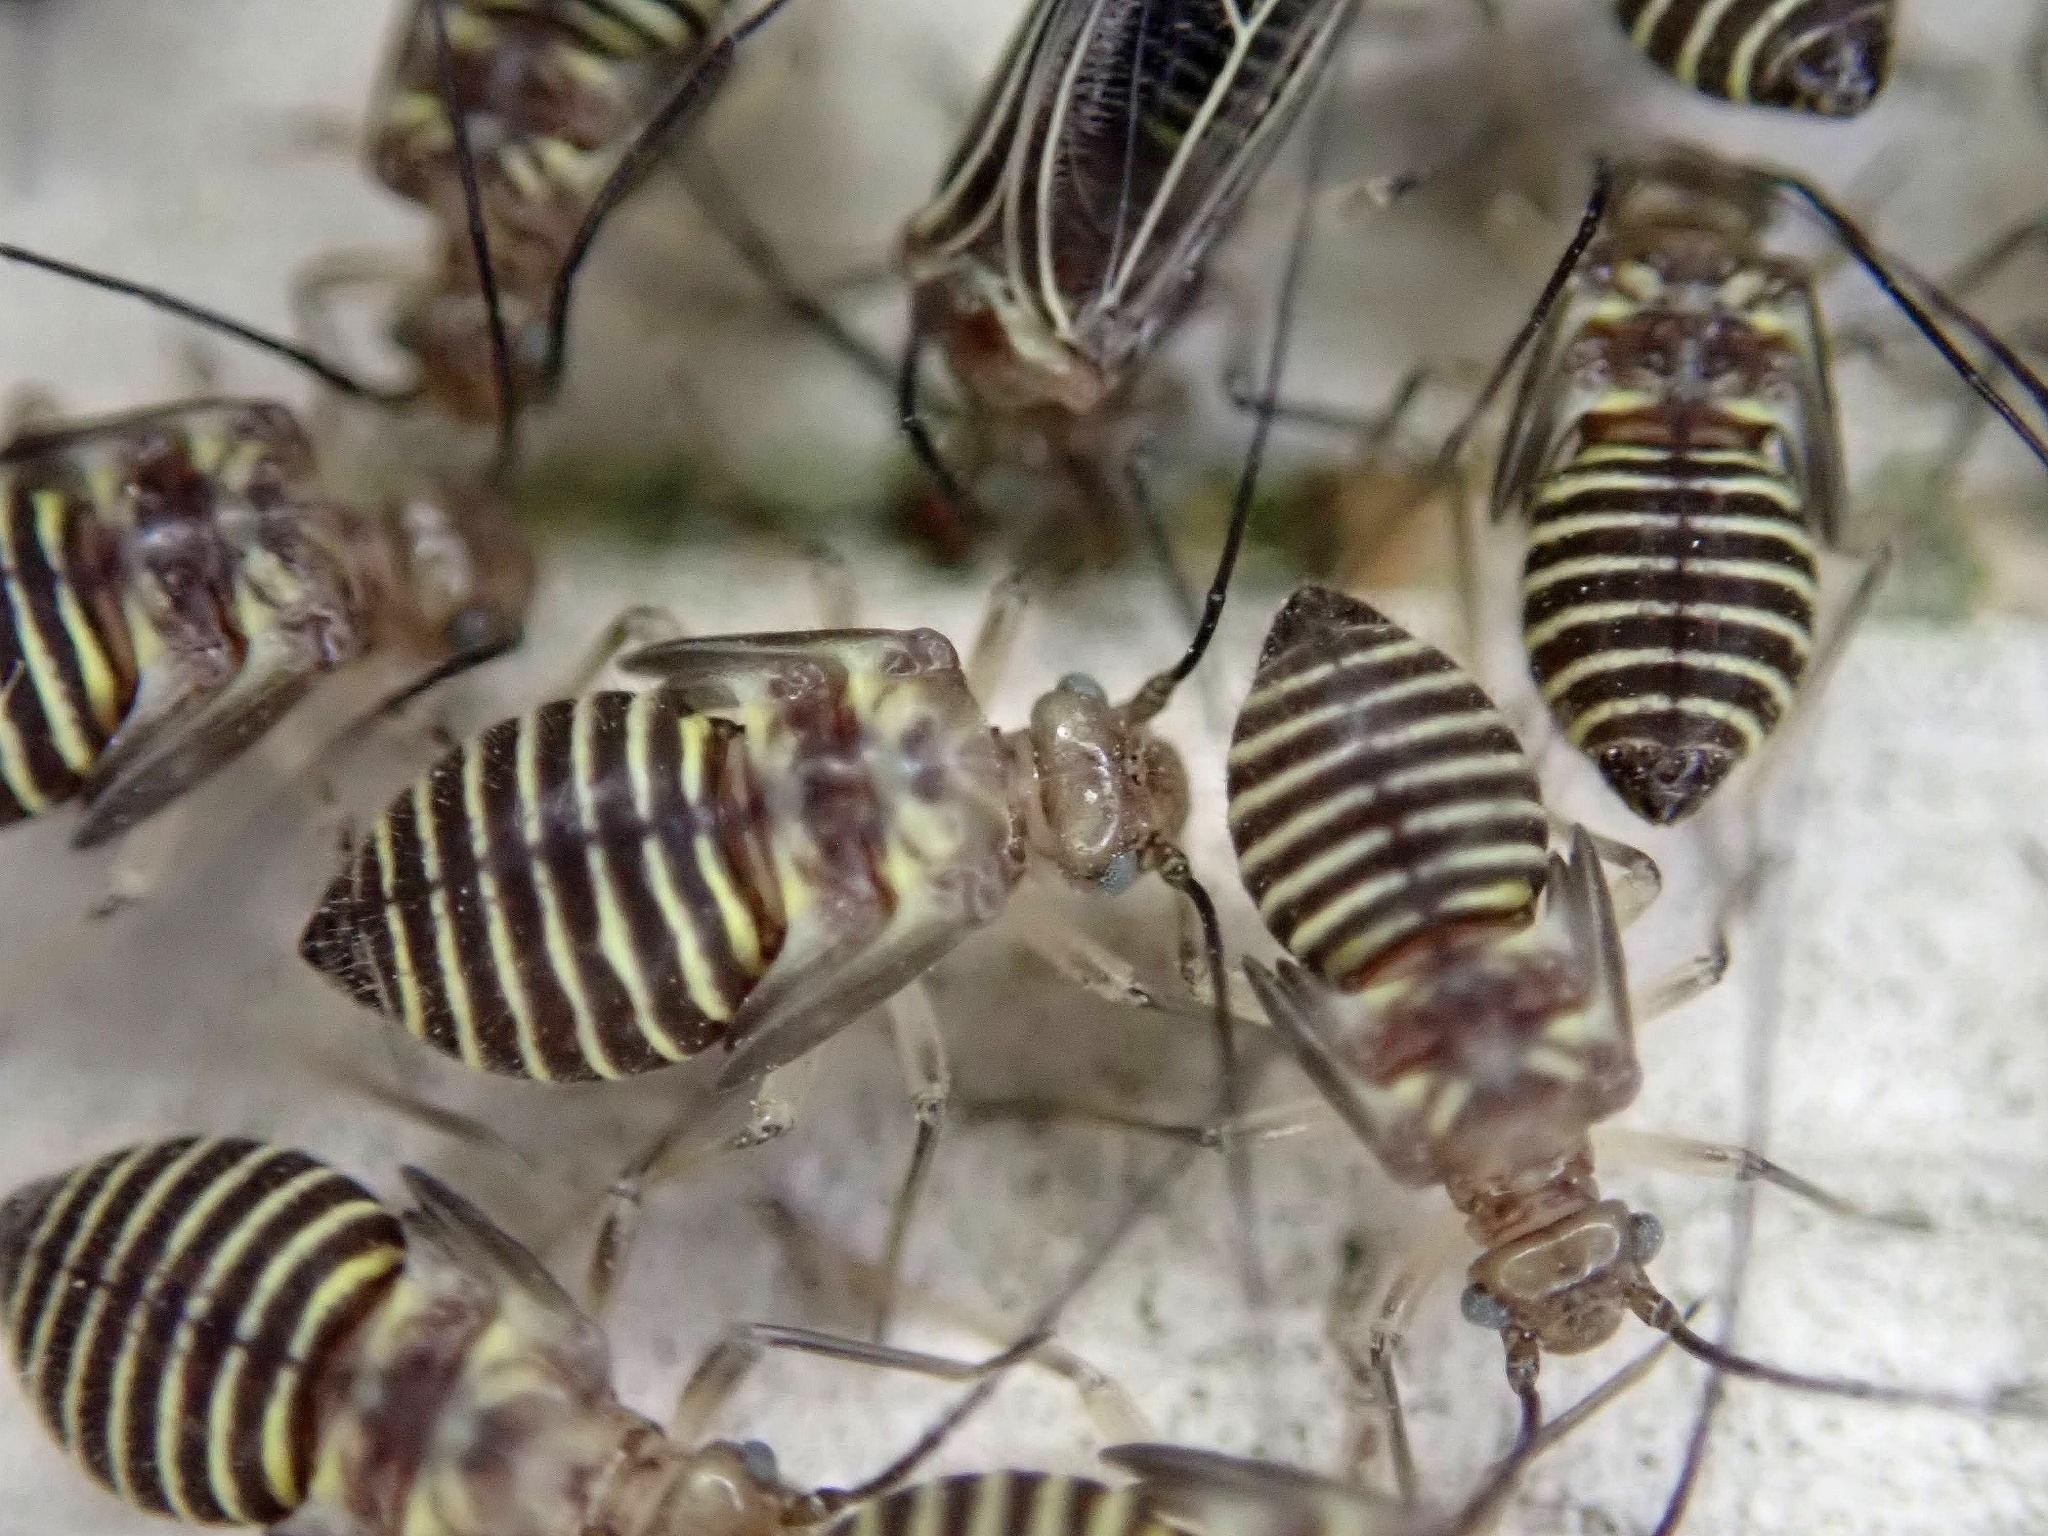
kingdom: Animalia
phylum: Arthropoda
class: Insecta
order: Psocodea
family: Psocidae
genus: Cerastipsocus
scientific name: Cerastipsocus venosus
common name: Tree cattle
